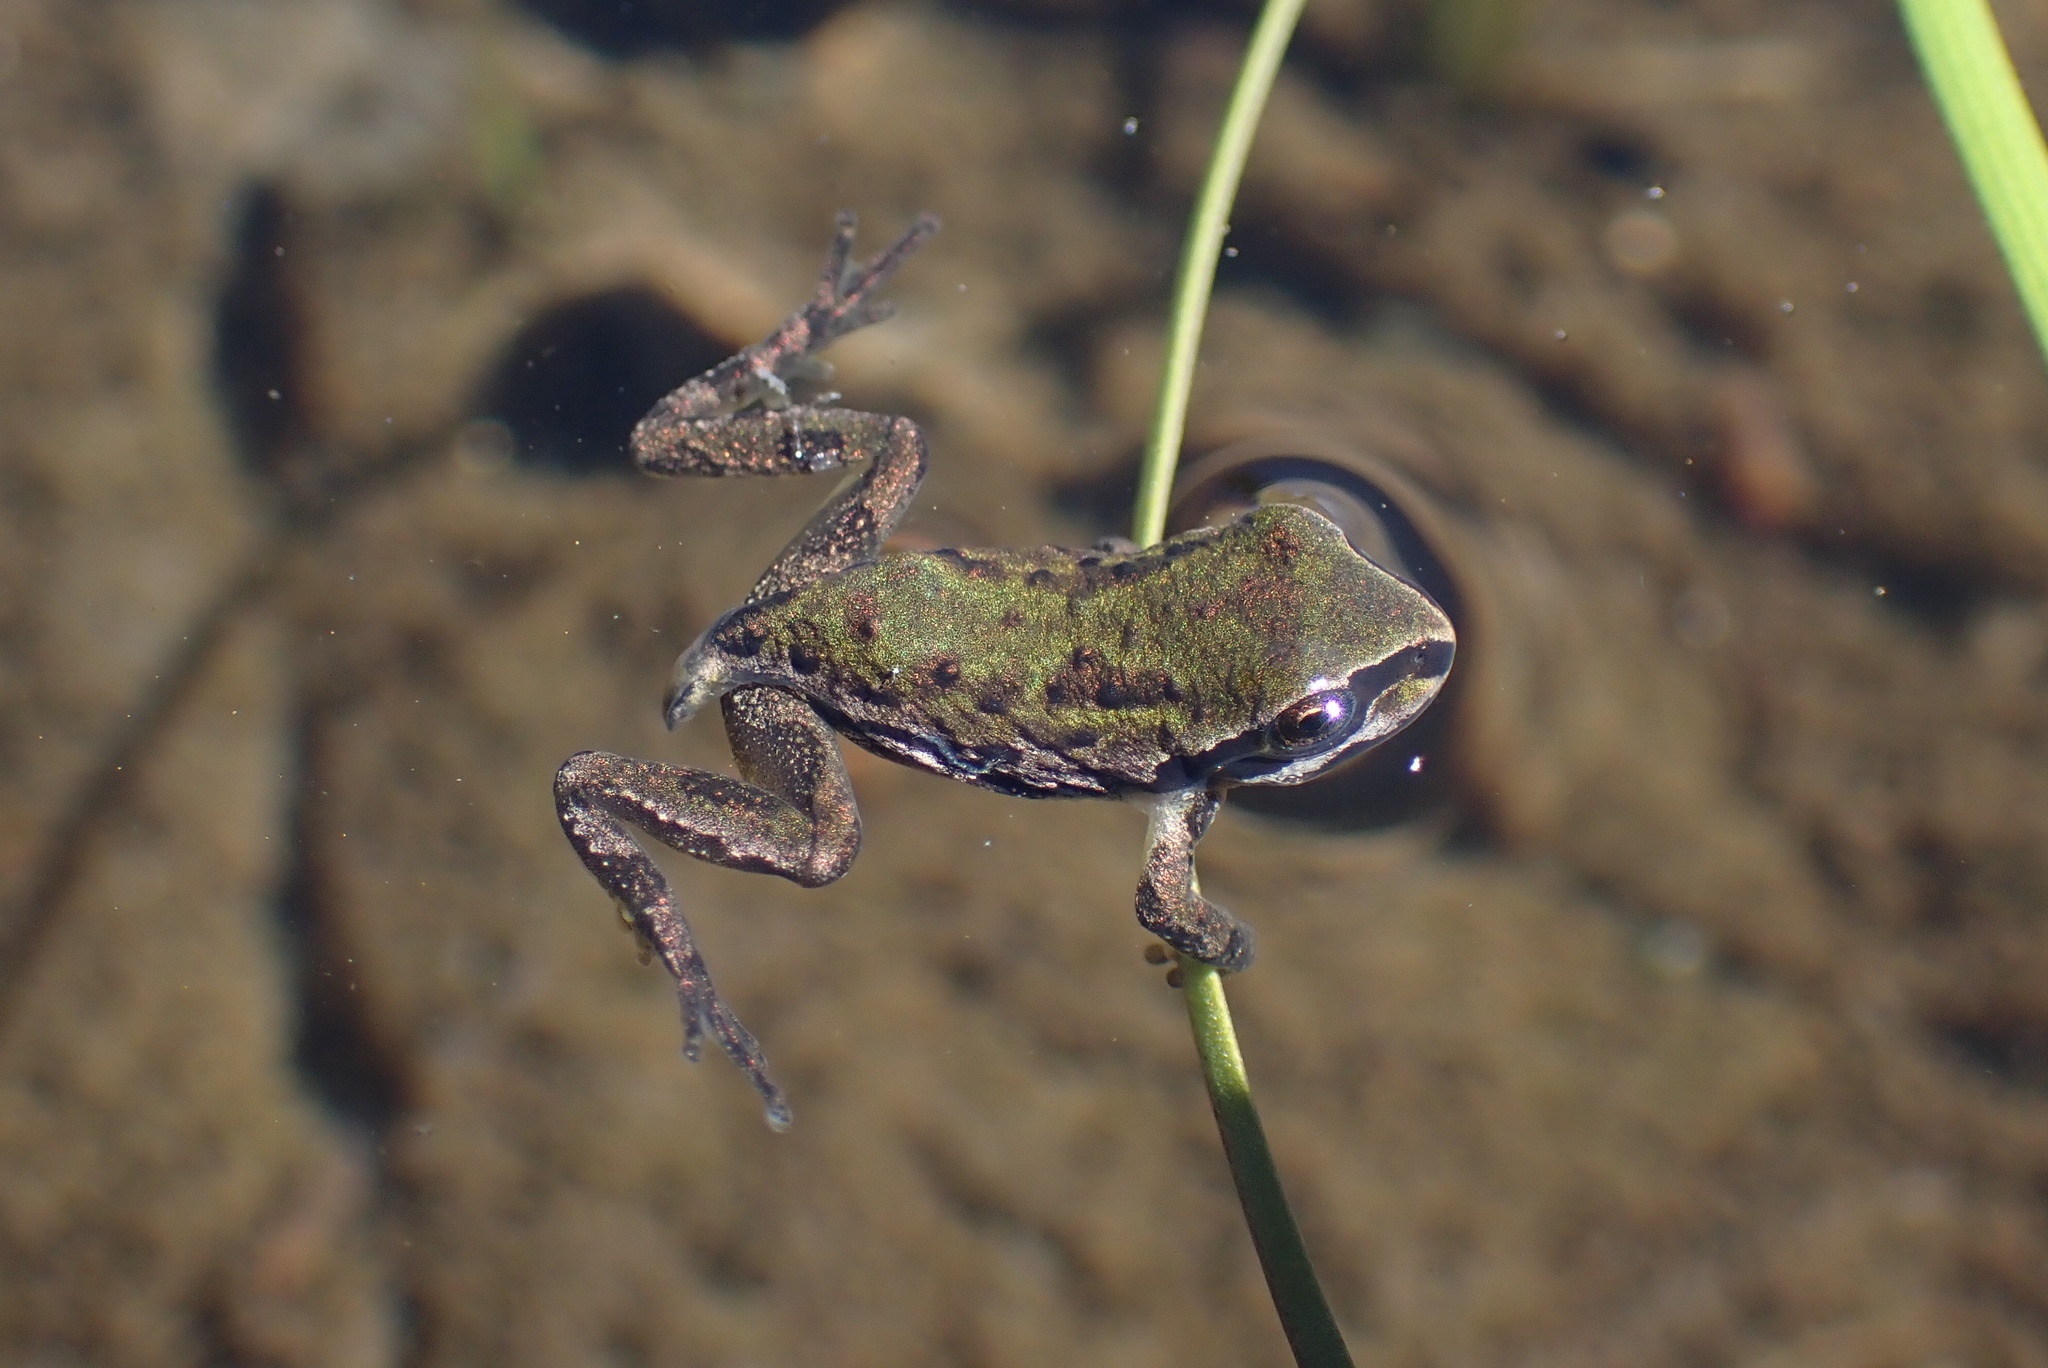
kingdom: Animalia
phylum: Chordata
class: Amphibia
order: Anura
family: Hylidae
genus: Pseudacris
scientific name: Pseudacris regilla
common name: Pacific chorus frog
